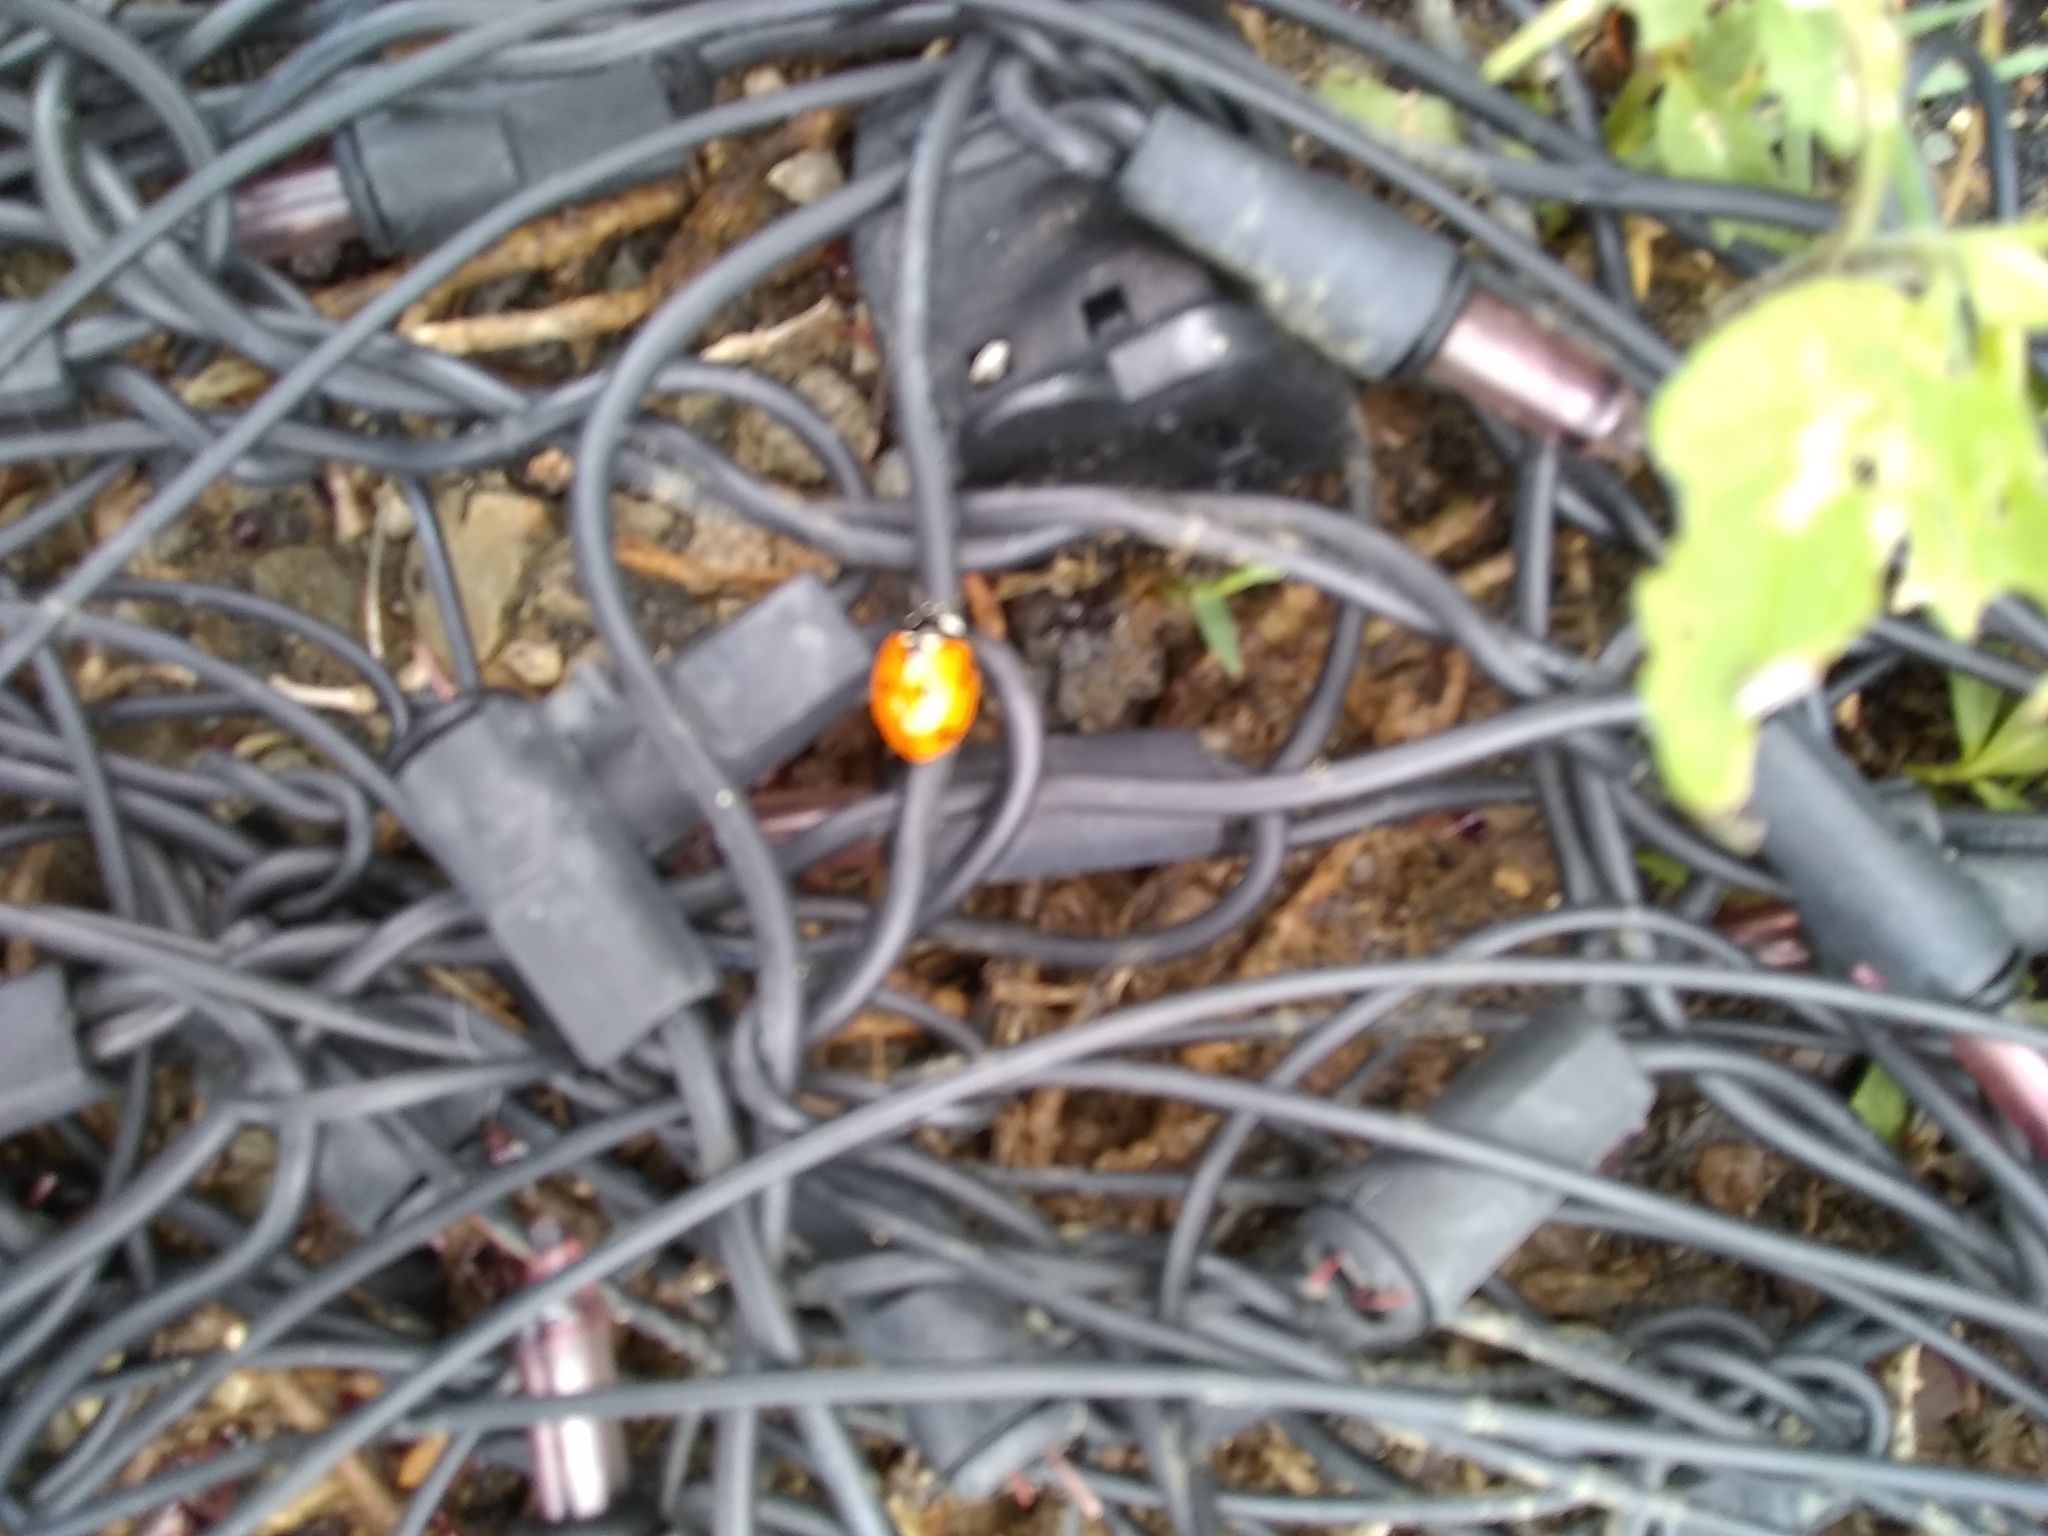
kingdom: Animalia
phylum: Arthropoda
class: Insecta
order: Coleoptera
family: Coccinellidae
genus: Coccinella
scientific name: Coccinella septempunctata
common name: Sevenspotted lady beetle
